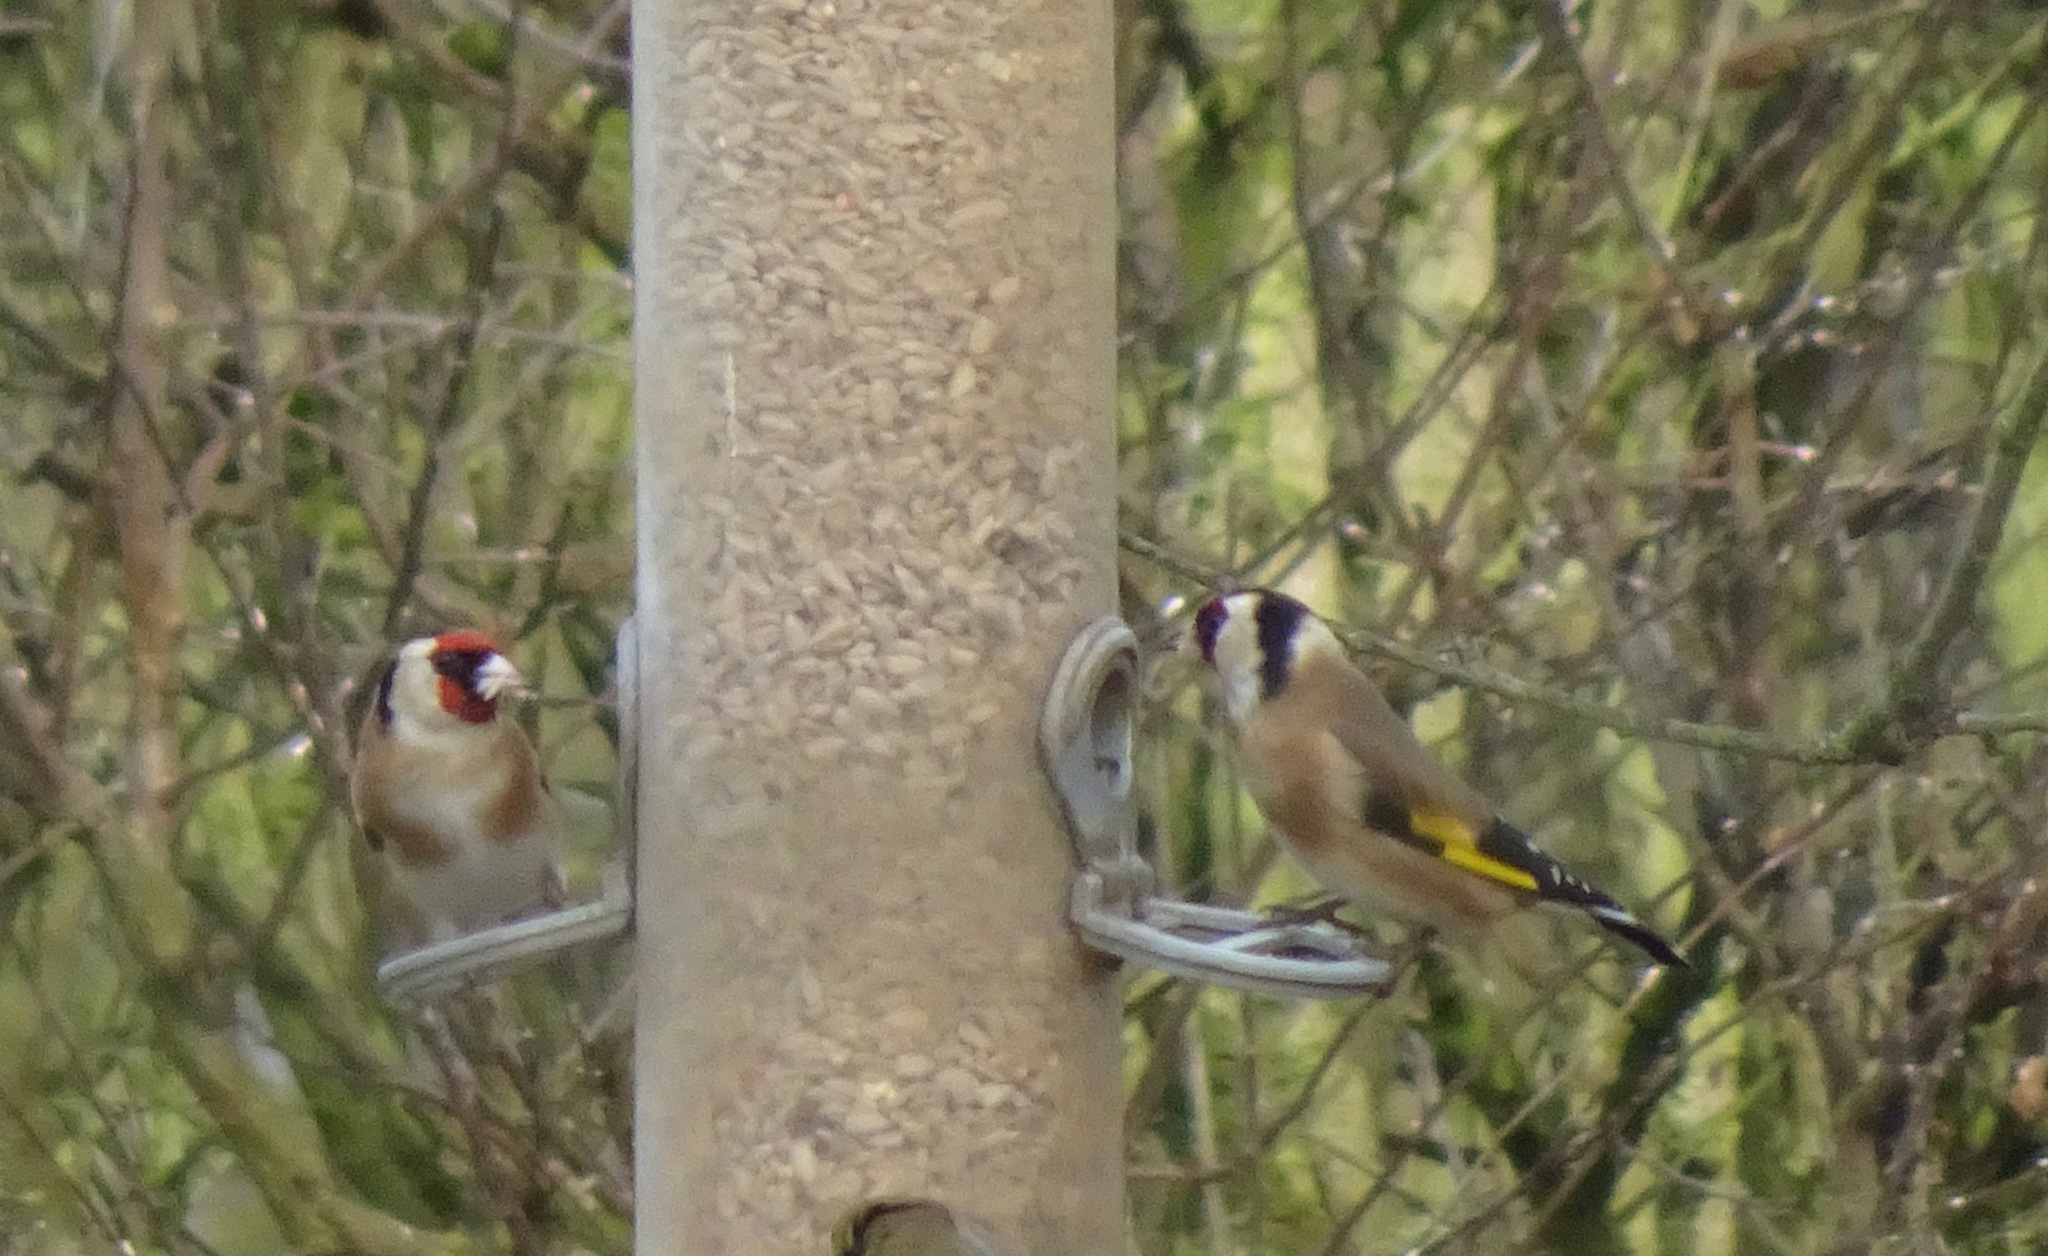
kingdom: Animalia
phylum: Chordata
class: Aves
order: Passeriformes
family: Fringillidae
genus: Carduelis
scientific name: Carduelis carduelis
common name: European goldfinch
